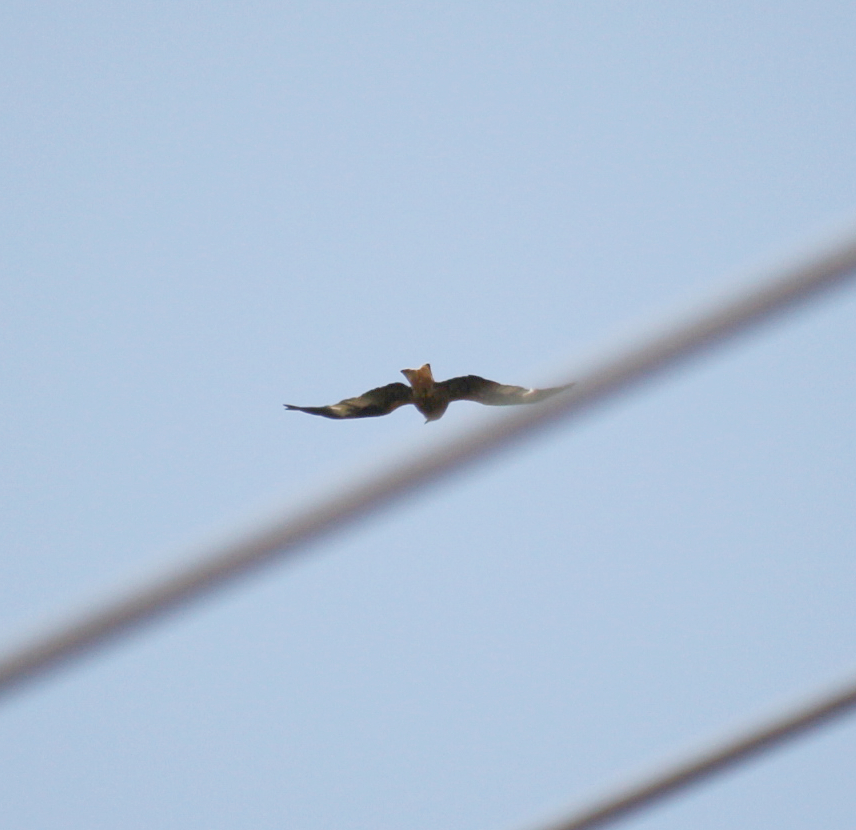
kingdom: Animalia
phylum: Chordata
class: Aves
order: Accipitriformes
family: Accipitridae
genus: Milvus
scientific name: Milvus milvus
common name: Red kite
